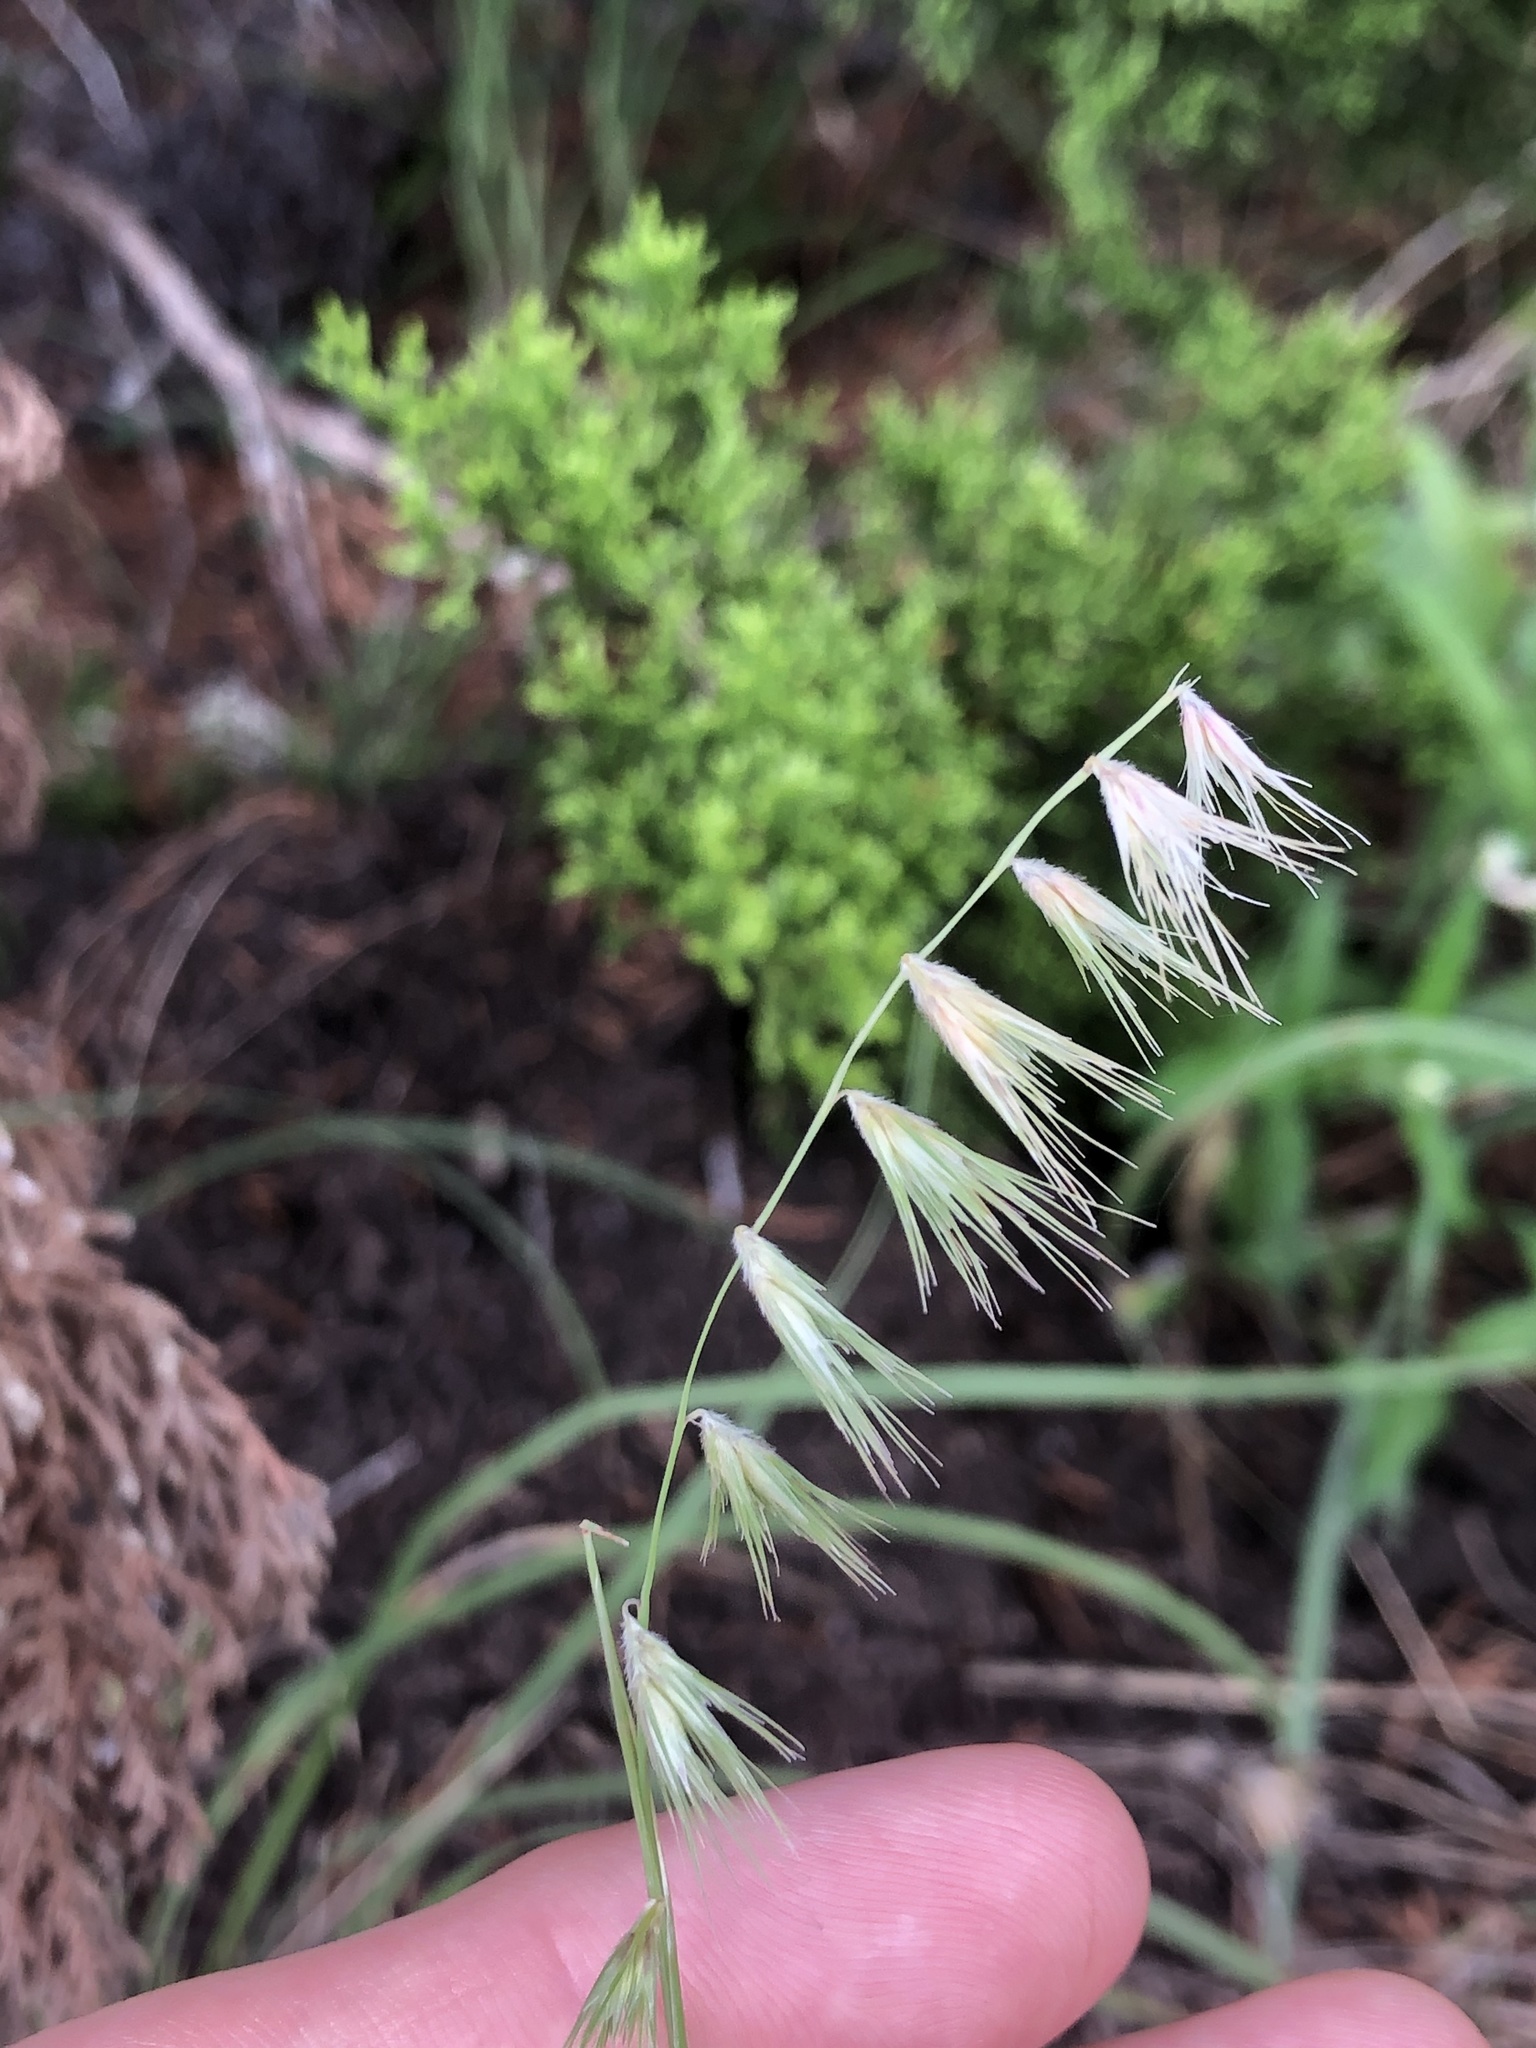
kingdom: Plantae
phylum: Tracheophyta
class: Liliopsida
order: Poales
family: Poaceae
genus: Bouteloua
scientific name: Bouteloua rigidiseta
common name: Texas grama
